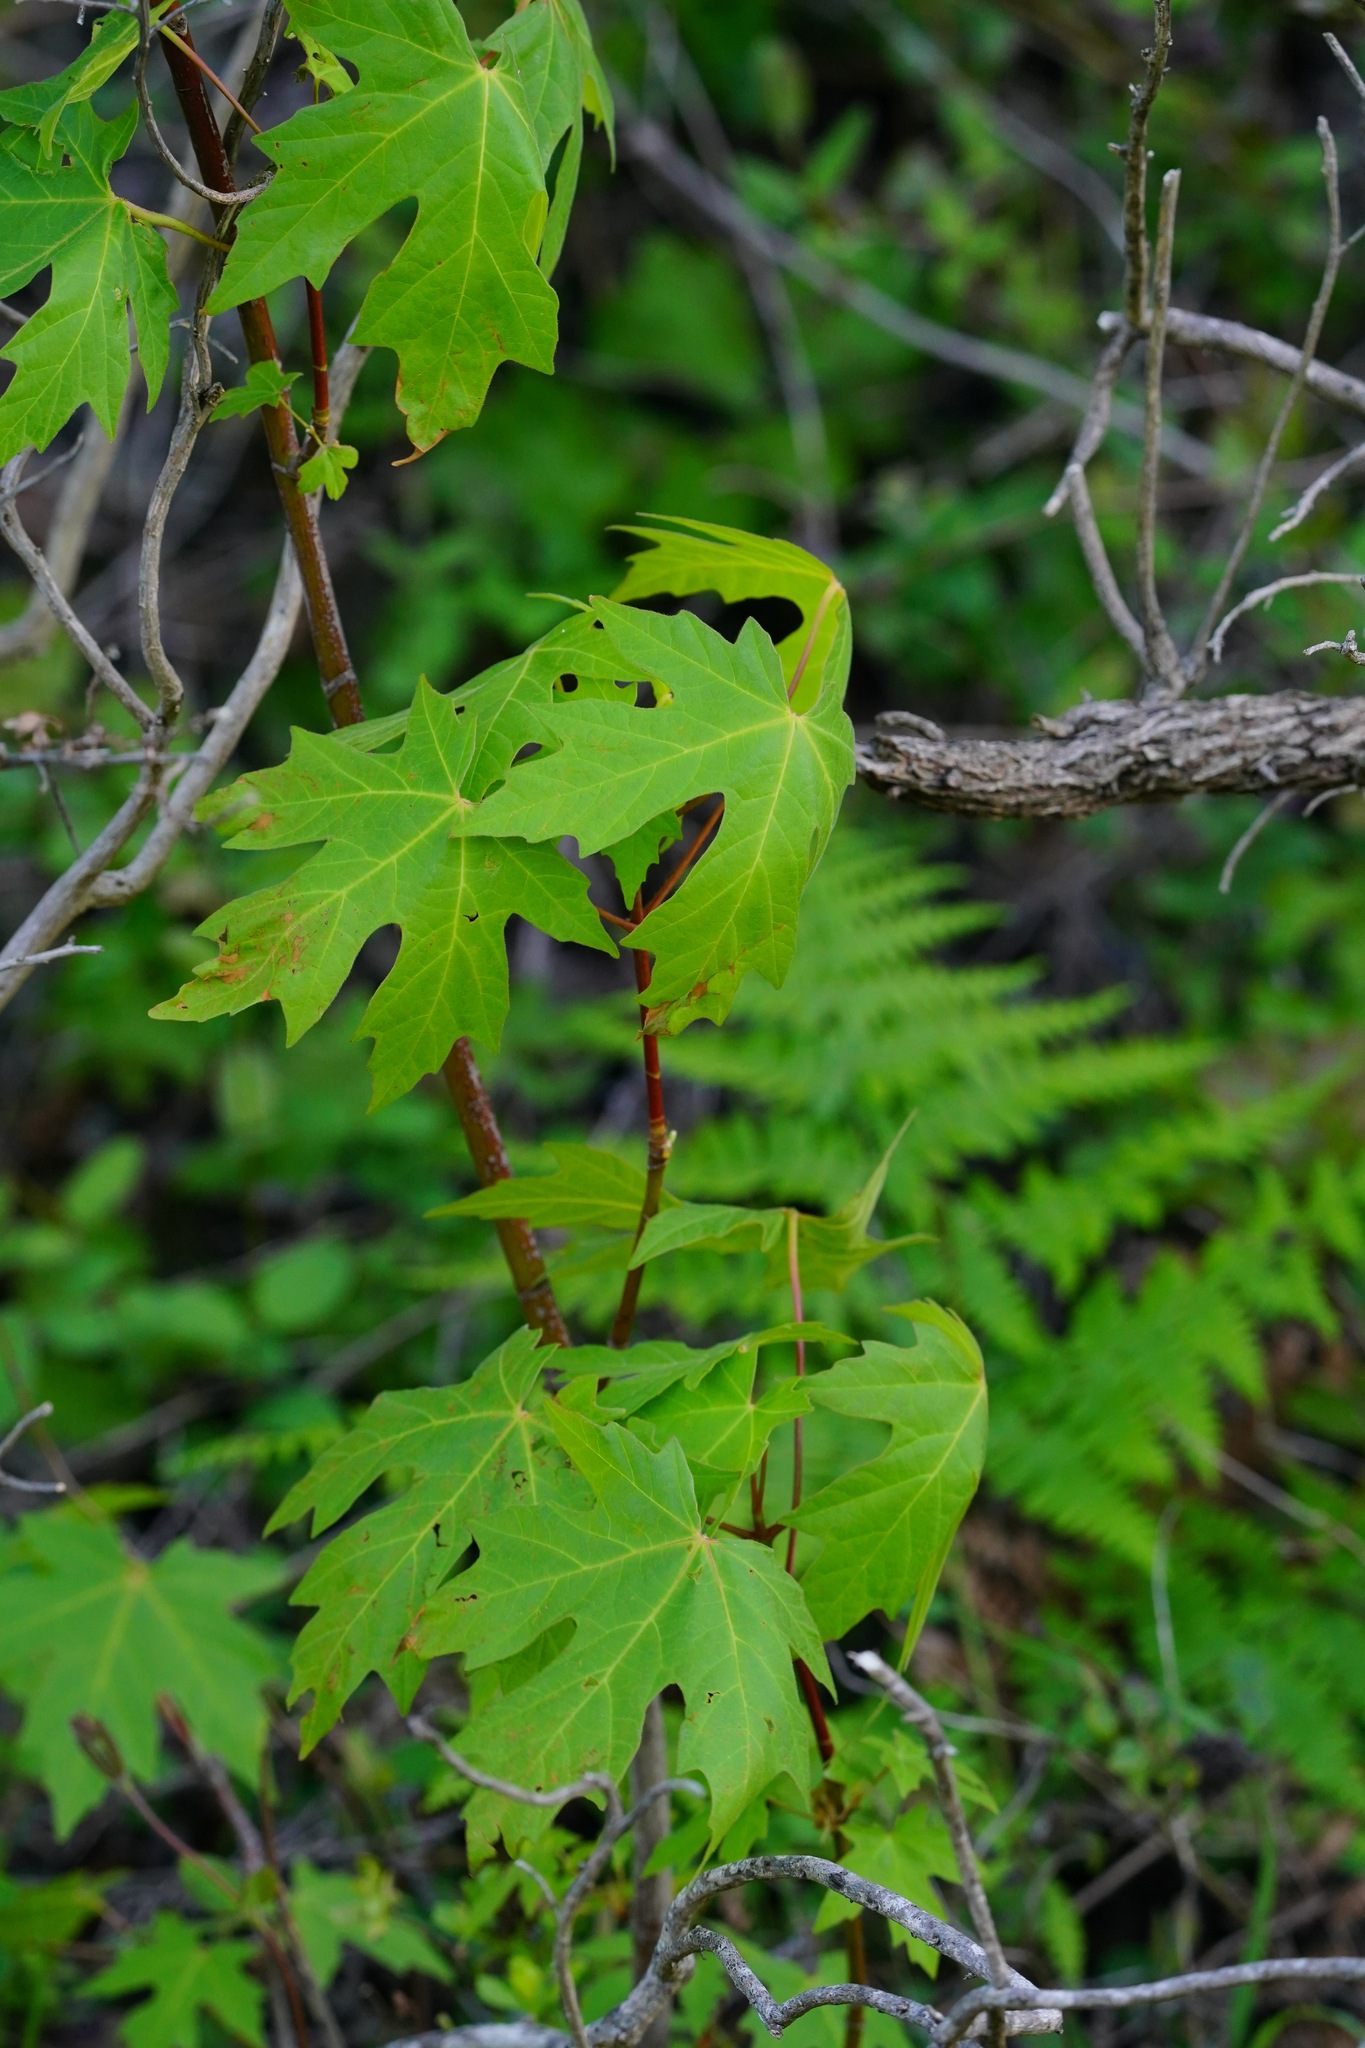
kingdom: Plantae
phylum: Tracheophyta
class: Magnoliopsida
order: Sapindales
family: Sapindaceae
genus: Acer
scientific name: Acer macrophyllum
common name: Oregon maple
